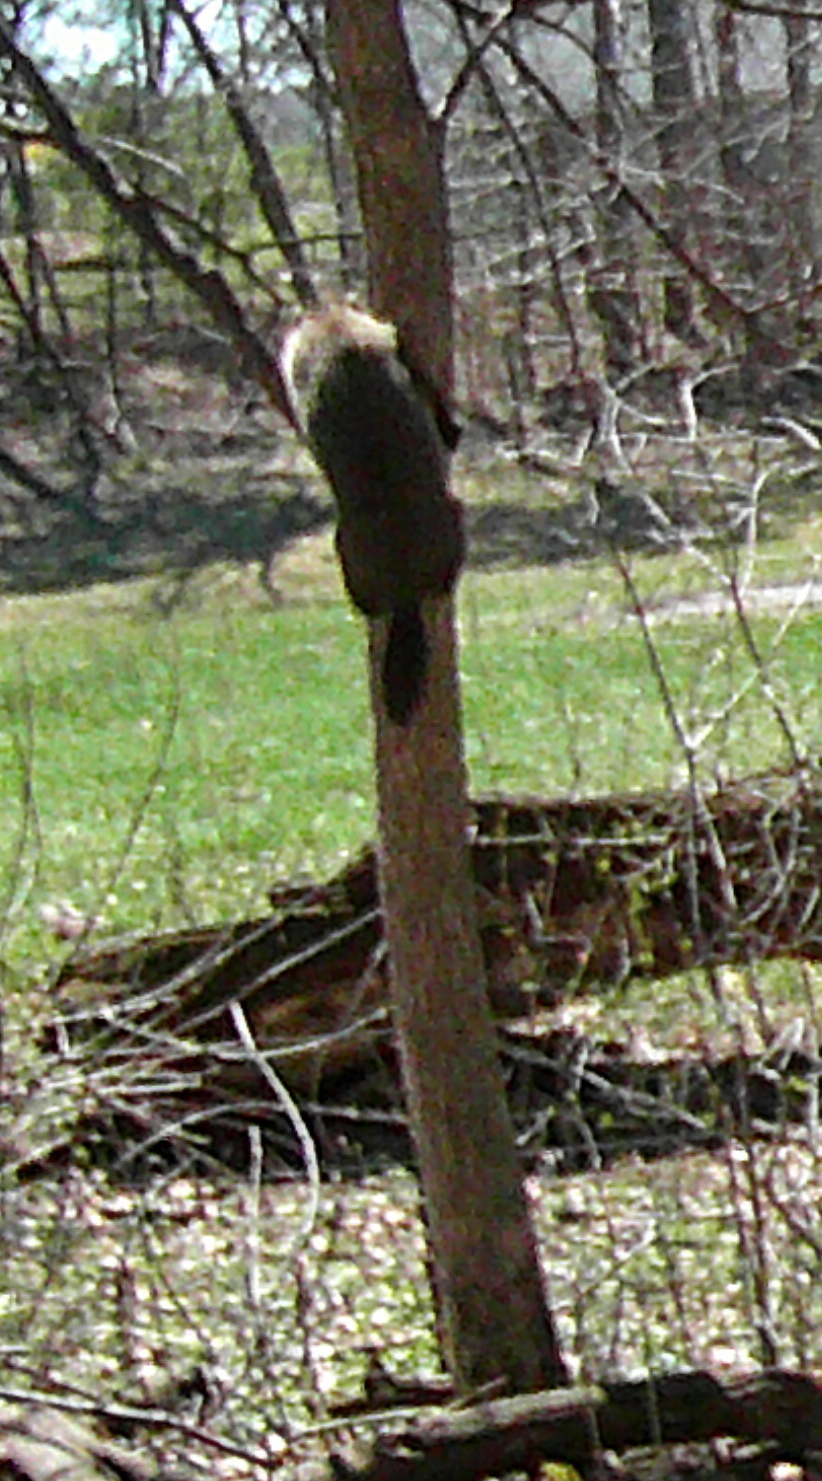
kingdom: Animalia
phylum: Chordata
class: Mammalia
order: Rodentia
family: Sciuridae
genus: Marmota
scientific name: Marmota monax
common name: Groundhog
